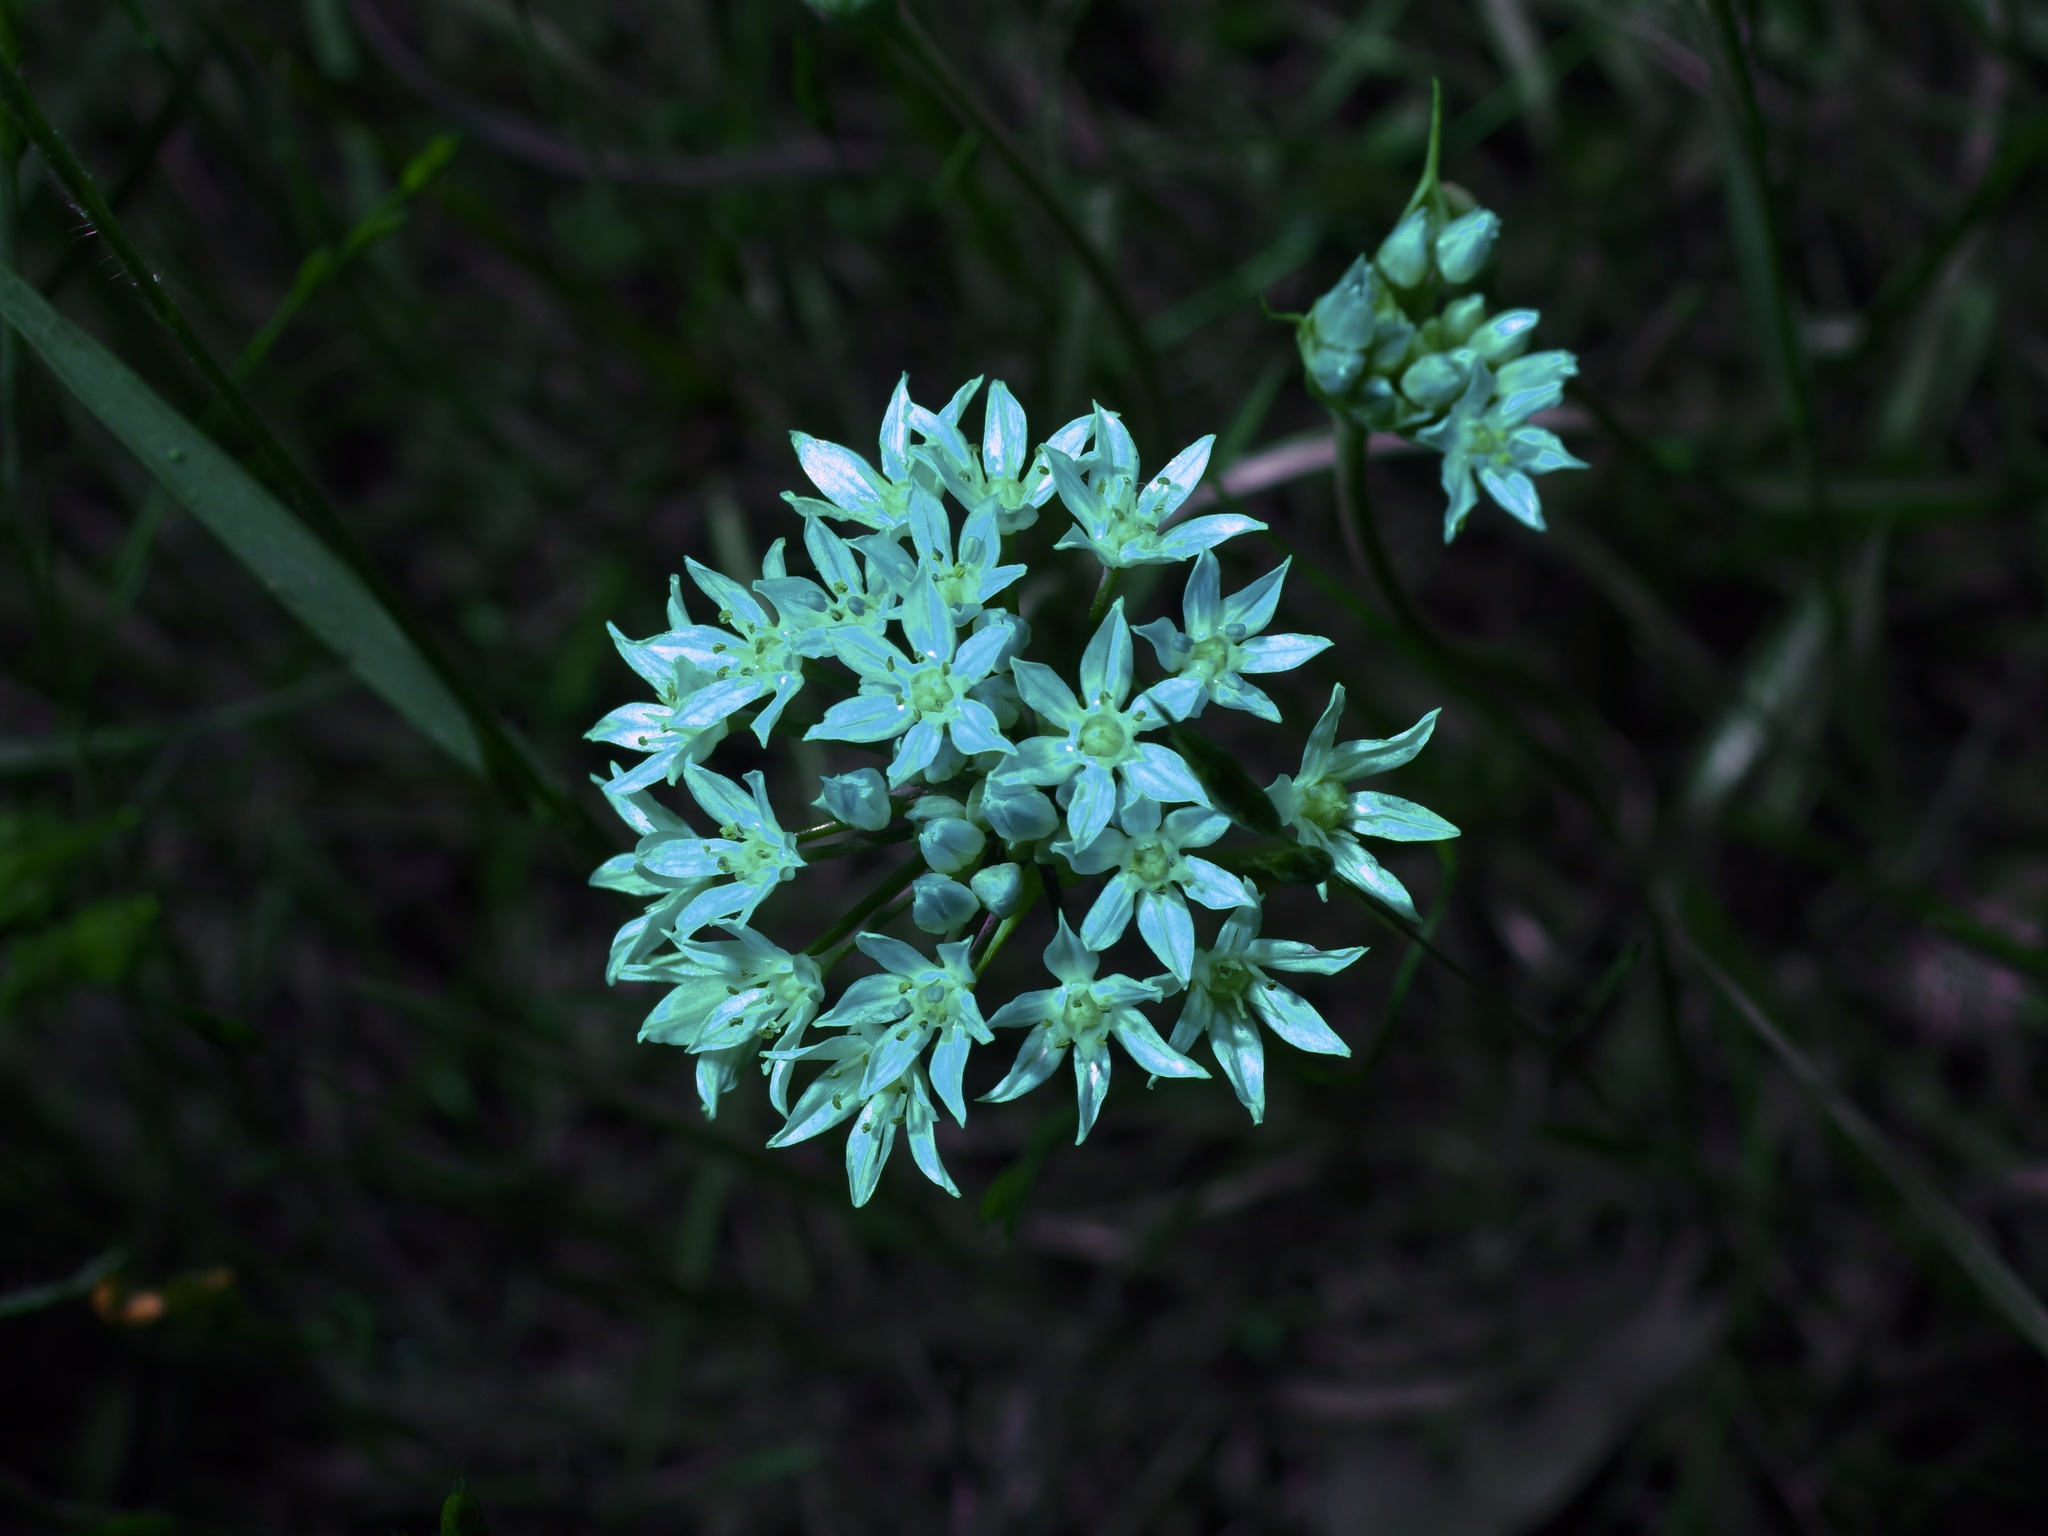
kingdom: Plantae
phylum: Tracheophyta
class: Liliopsida
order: Asparagales
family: Amaryllidaceae
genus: Allium
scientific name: Allium canadense
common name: Meadow garlic
